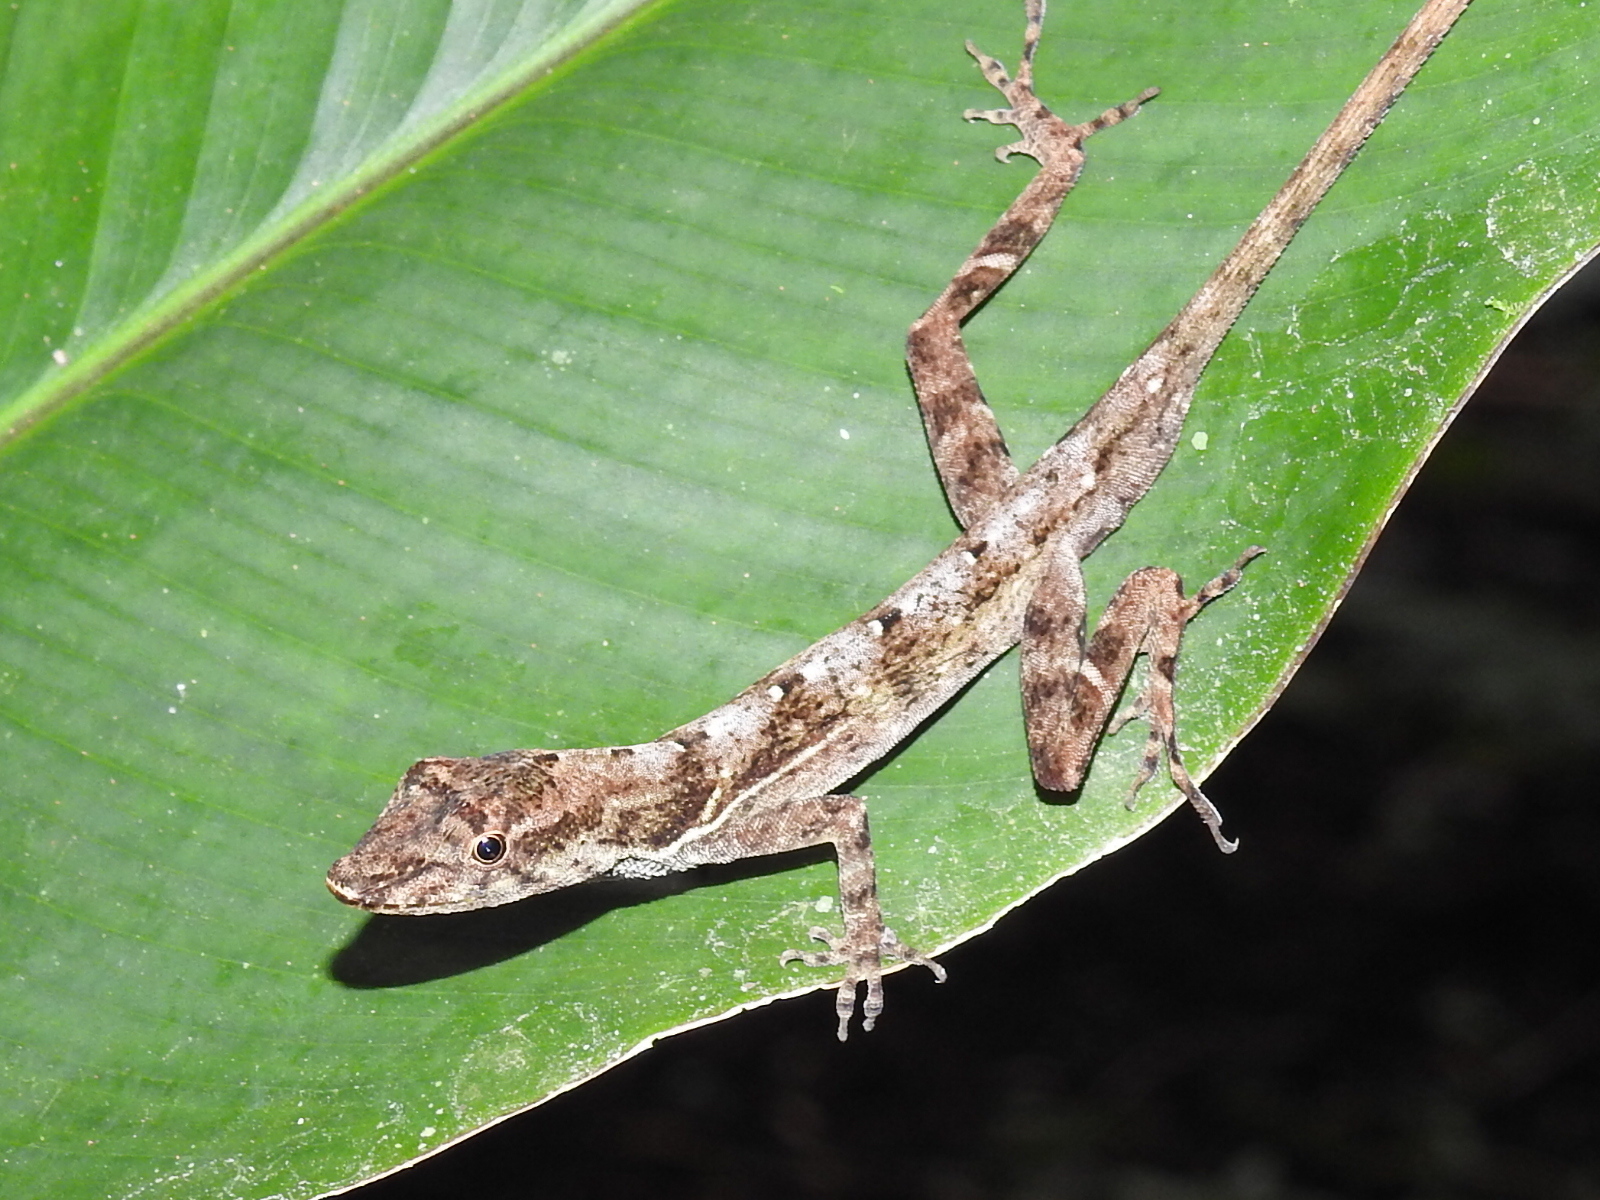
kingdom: Animalia
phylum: Chordata
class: Squamata
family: Dactyloidae
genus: Anolis
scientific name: Anolis polylepis
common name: Many-scaled anole
